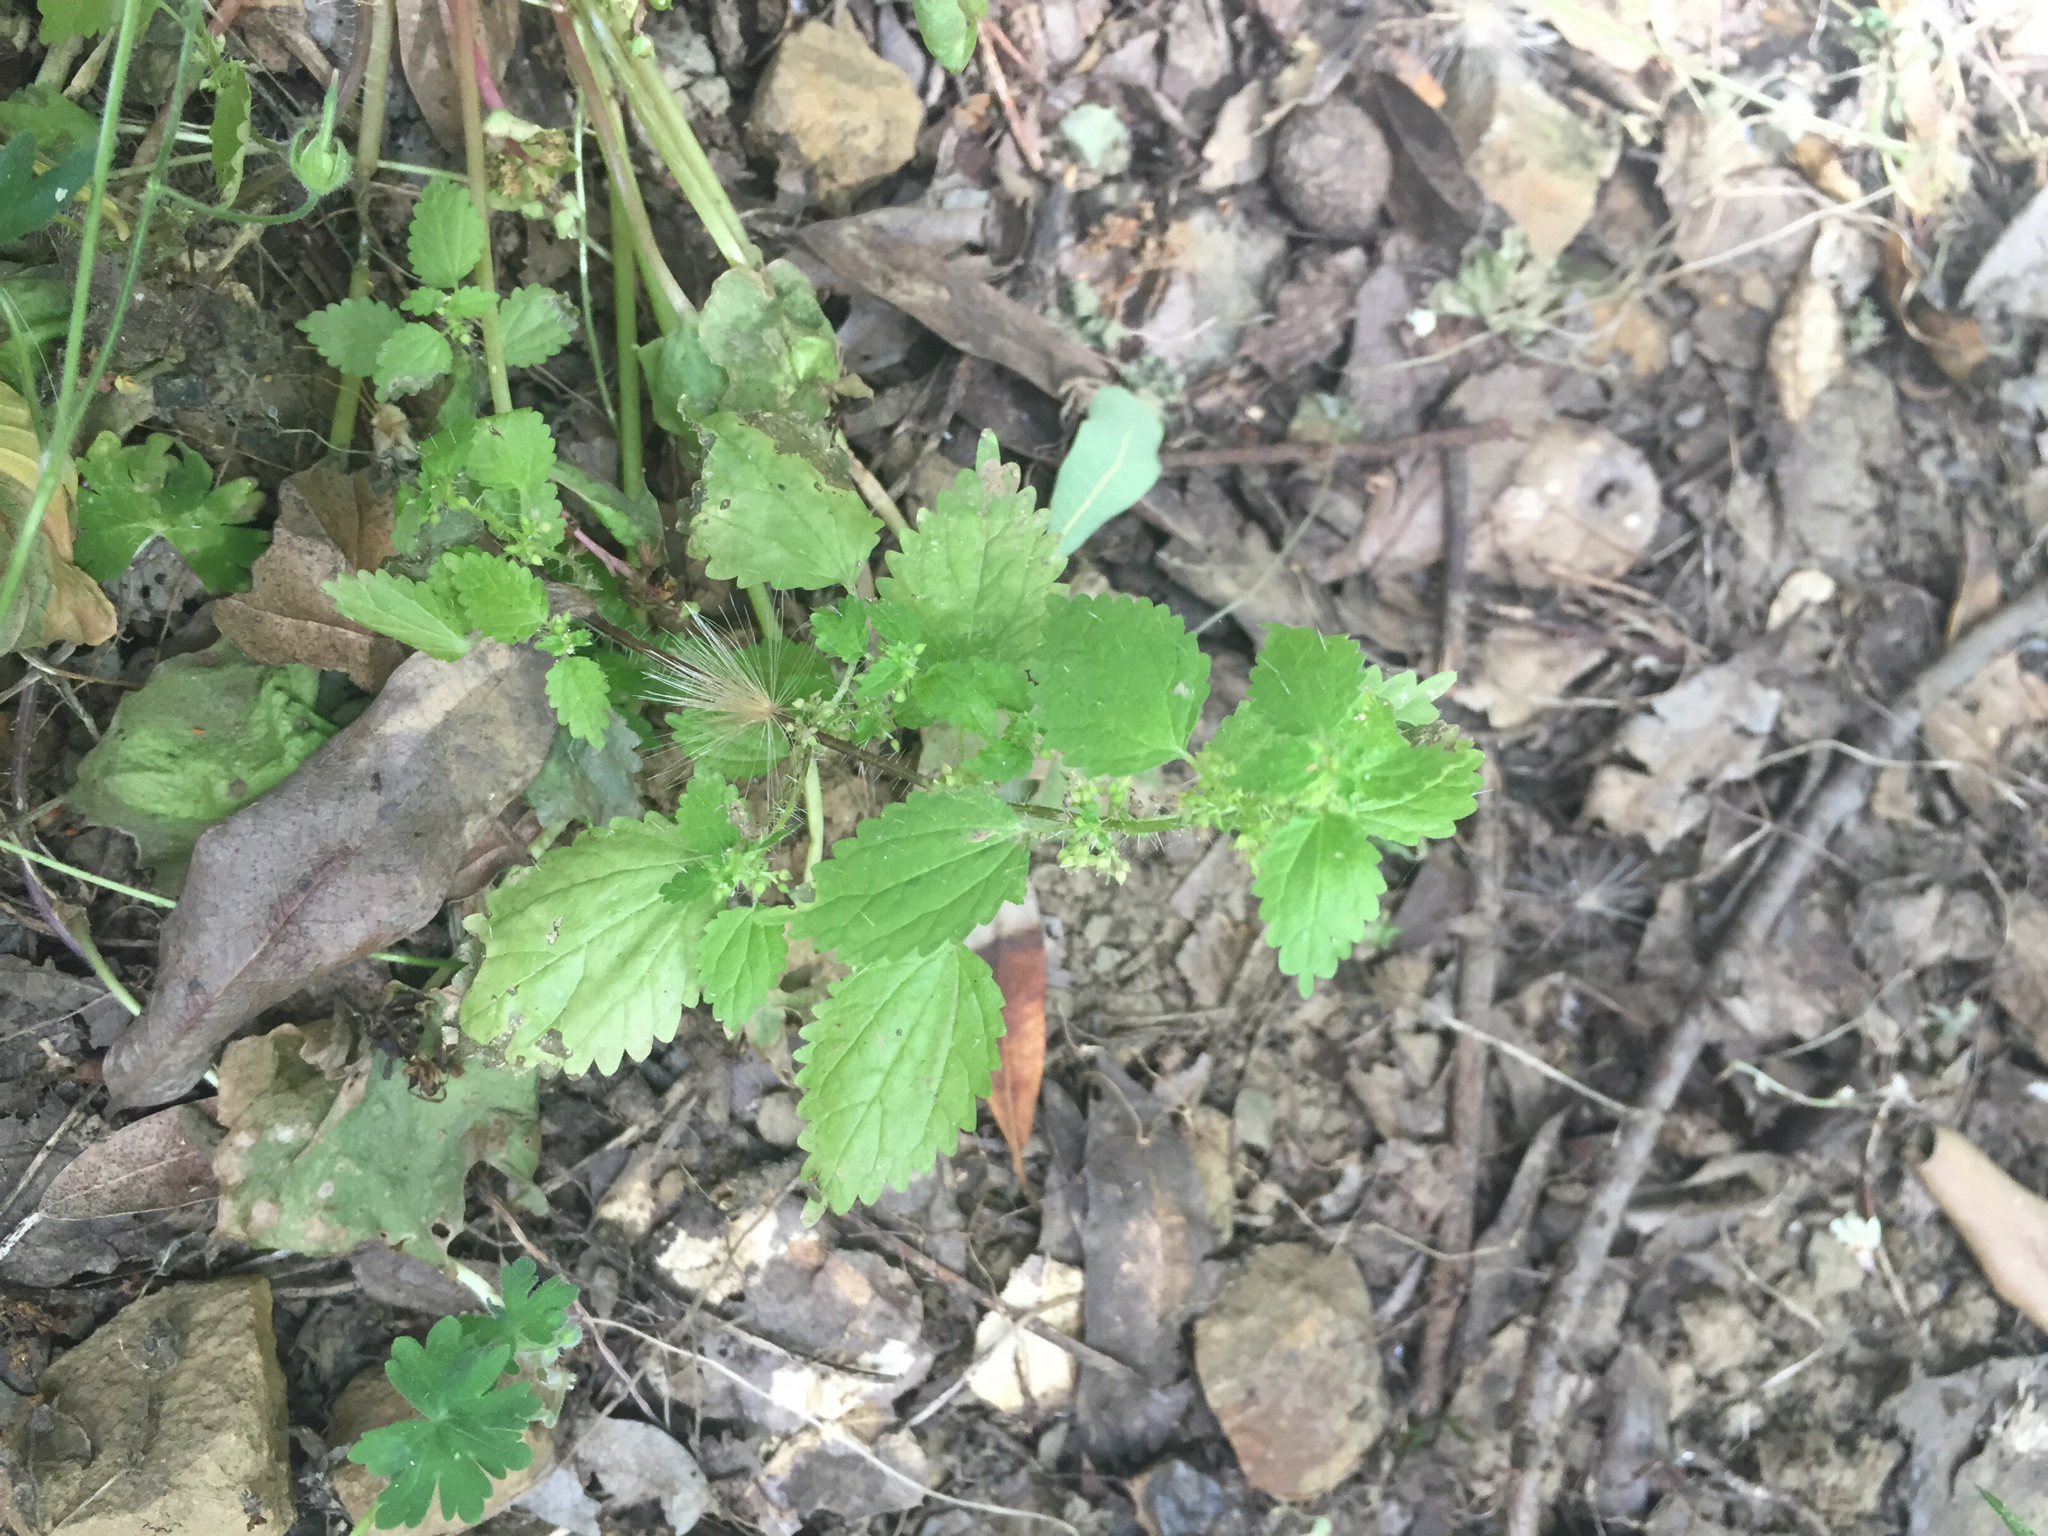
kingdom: Plantae
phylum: Tracheophyta
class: Magnoliopsida
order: Rosales
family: Urticaceae
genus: Hesperocnide
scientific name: Hesperocnide tenella
